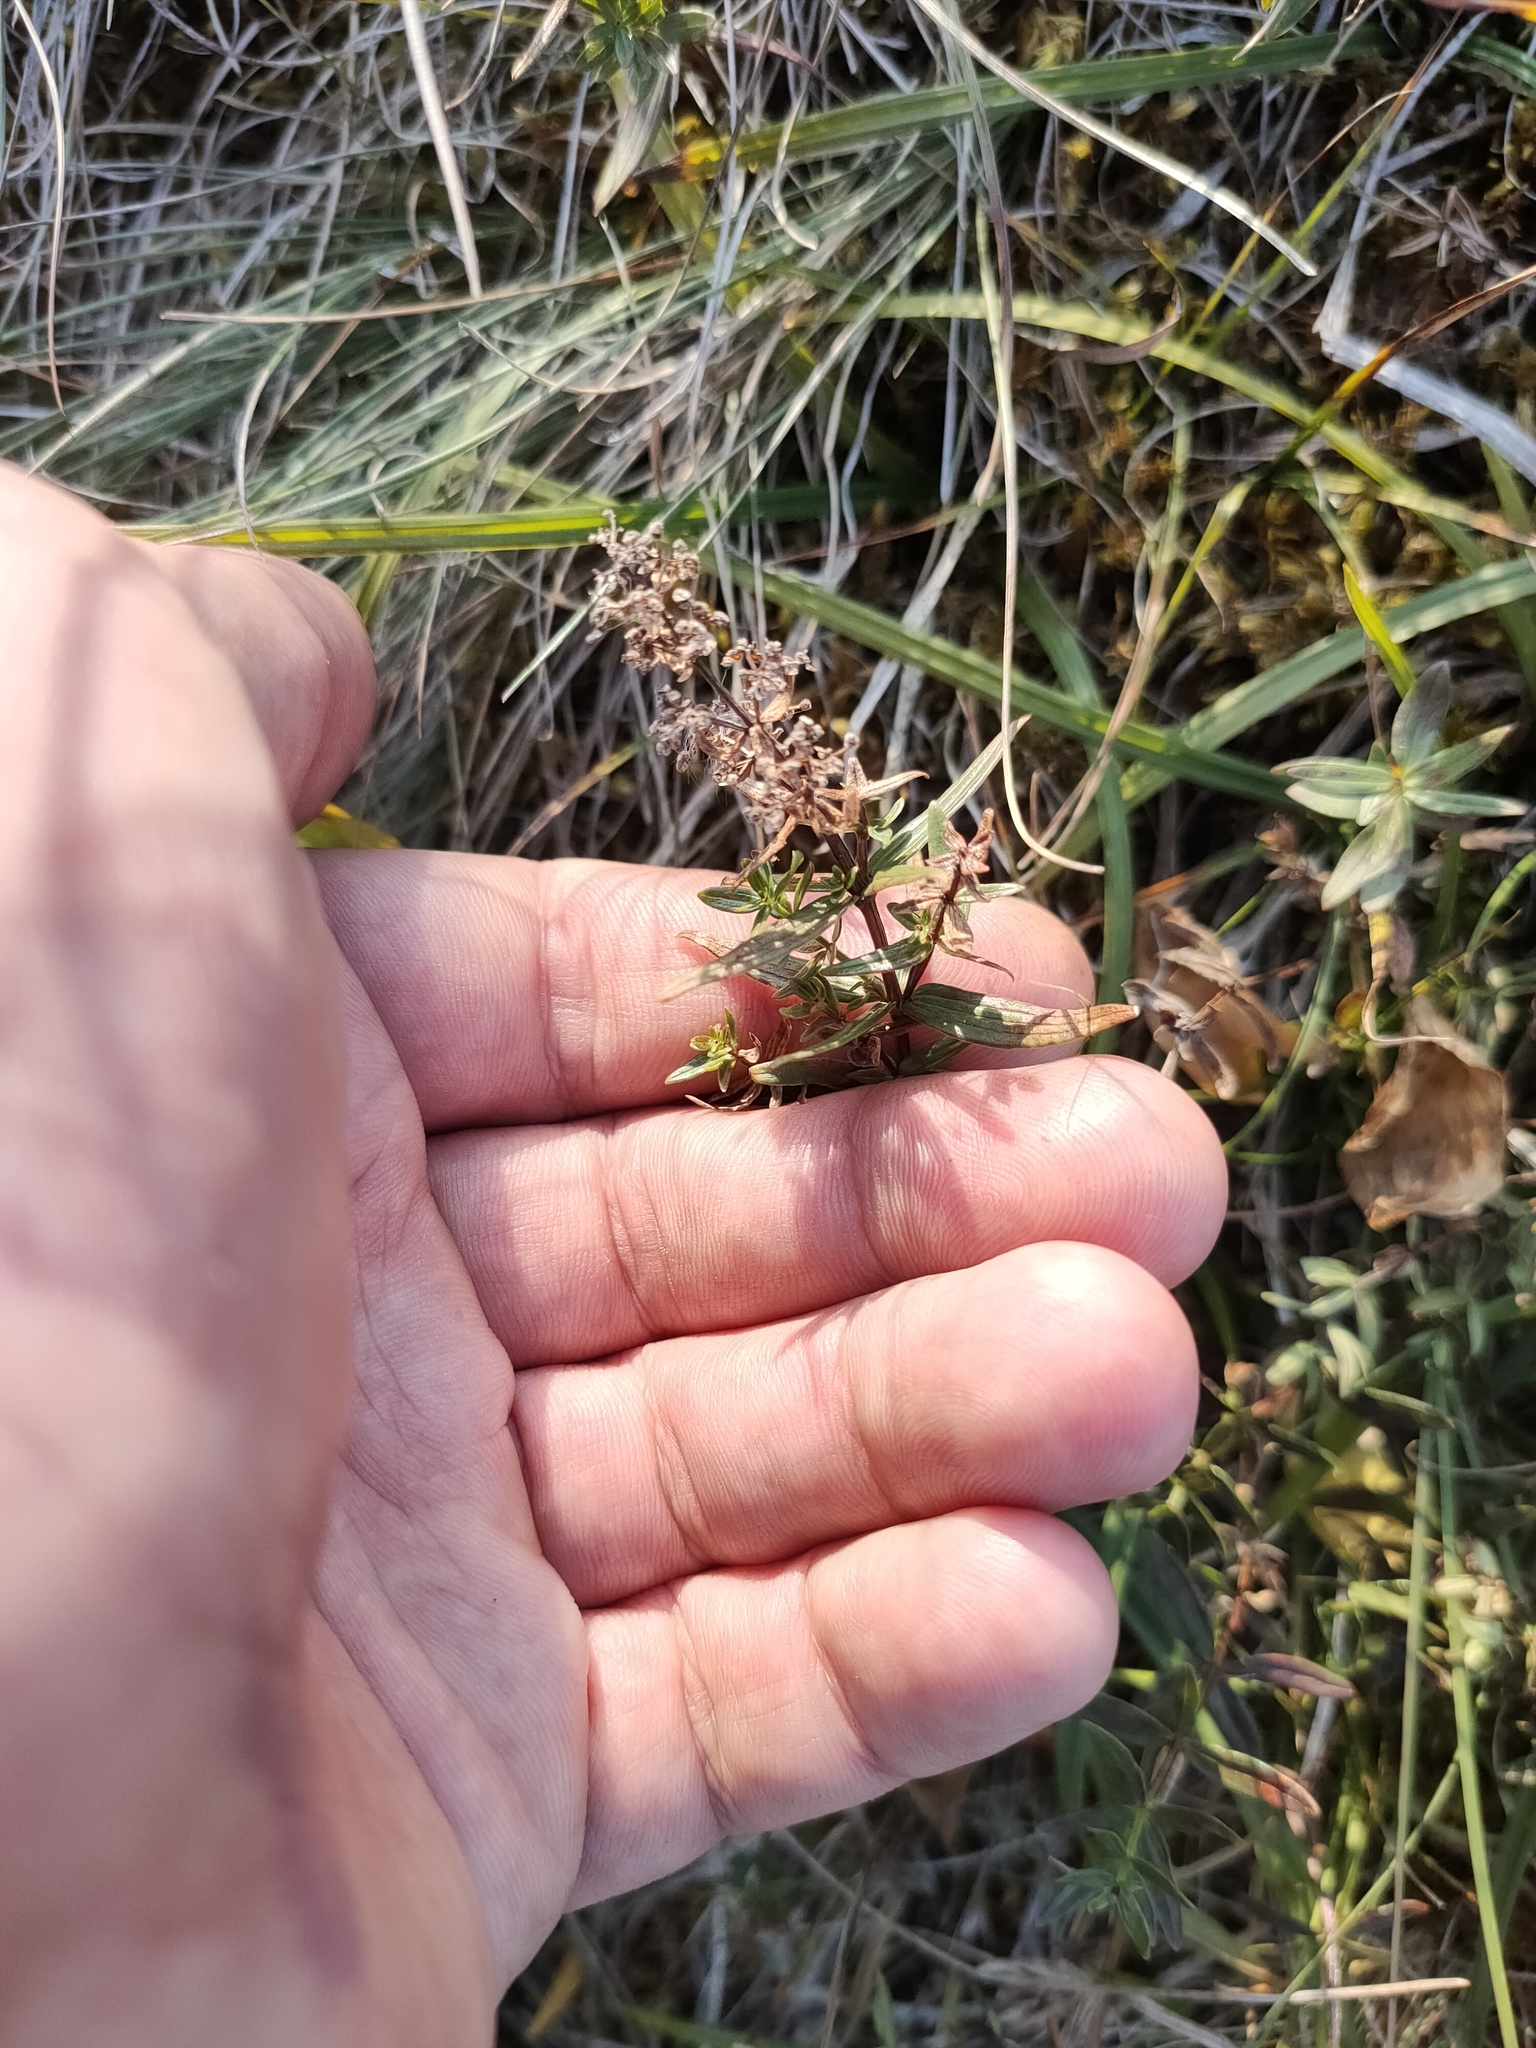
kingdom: Plantae
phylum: Tracheophyta
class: Magnoliopsida
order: Gentianales
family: Rubiaceae
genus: Galium
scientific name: Galium boreale
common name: Northern bedstraw
